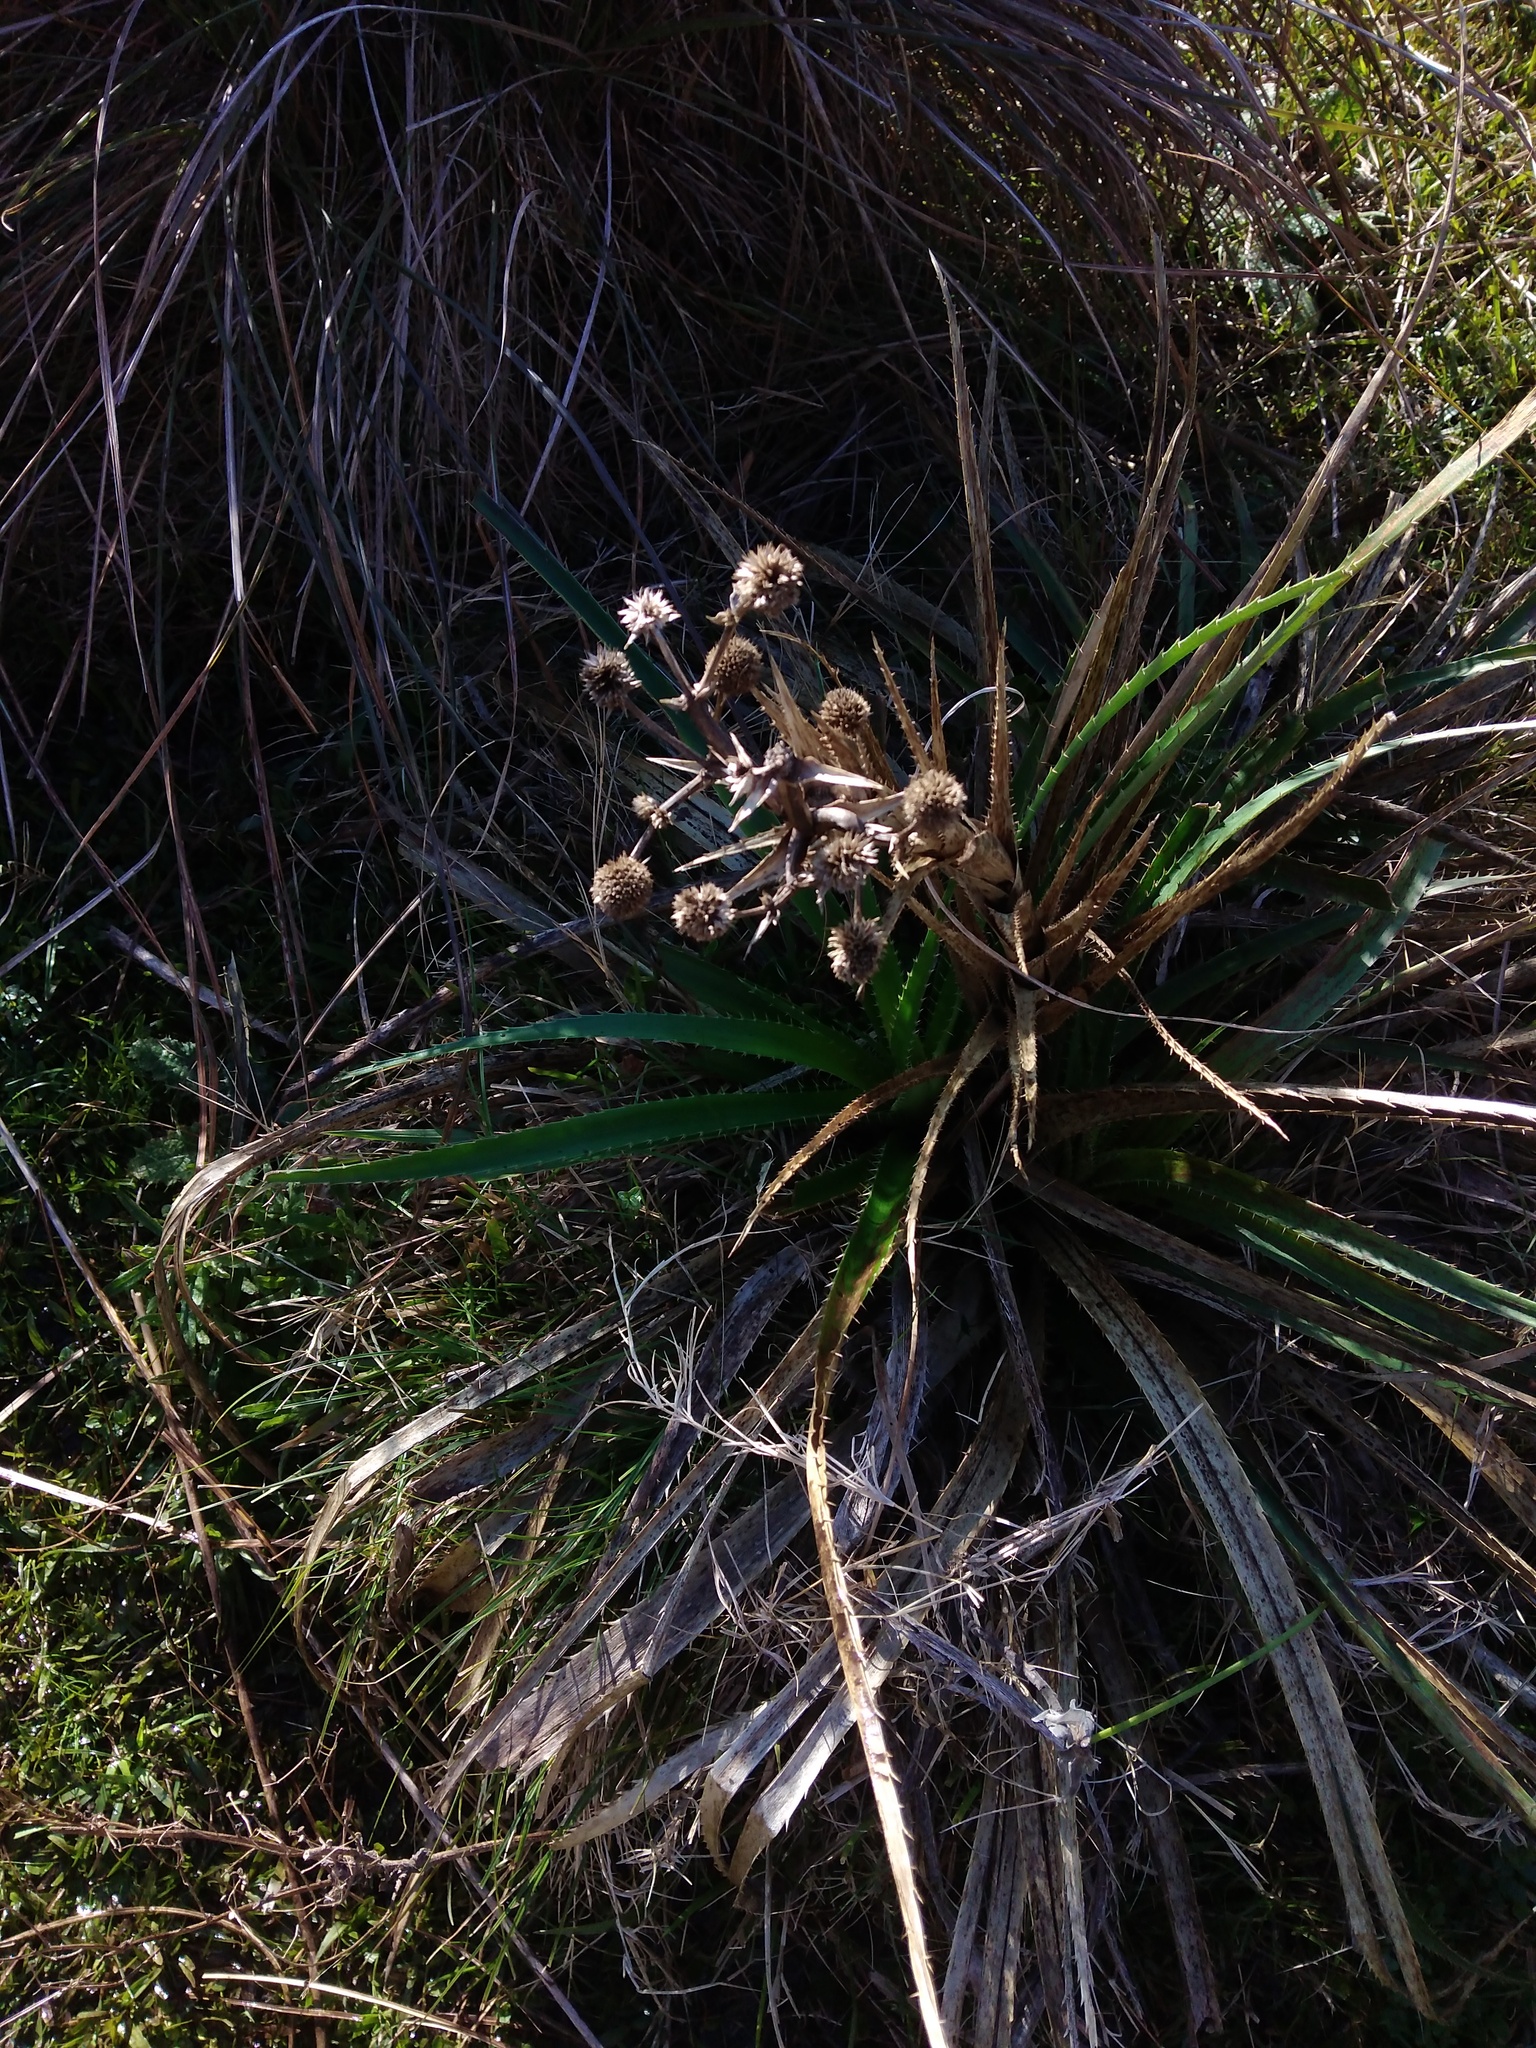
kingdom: Plantae
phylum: Tracheophyta
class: Magnoliopsida
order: Apiales
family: Apiaceae
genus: Eryngium
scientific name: Eryngium horridum
